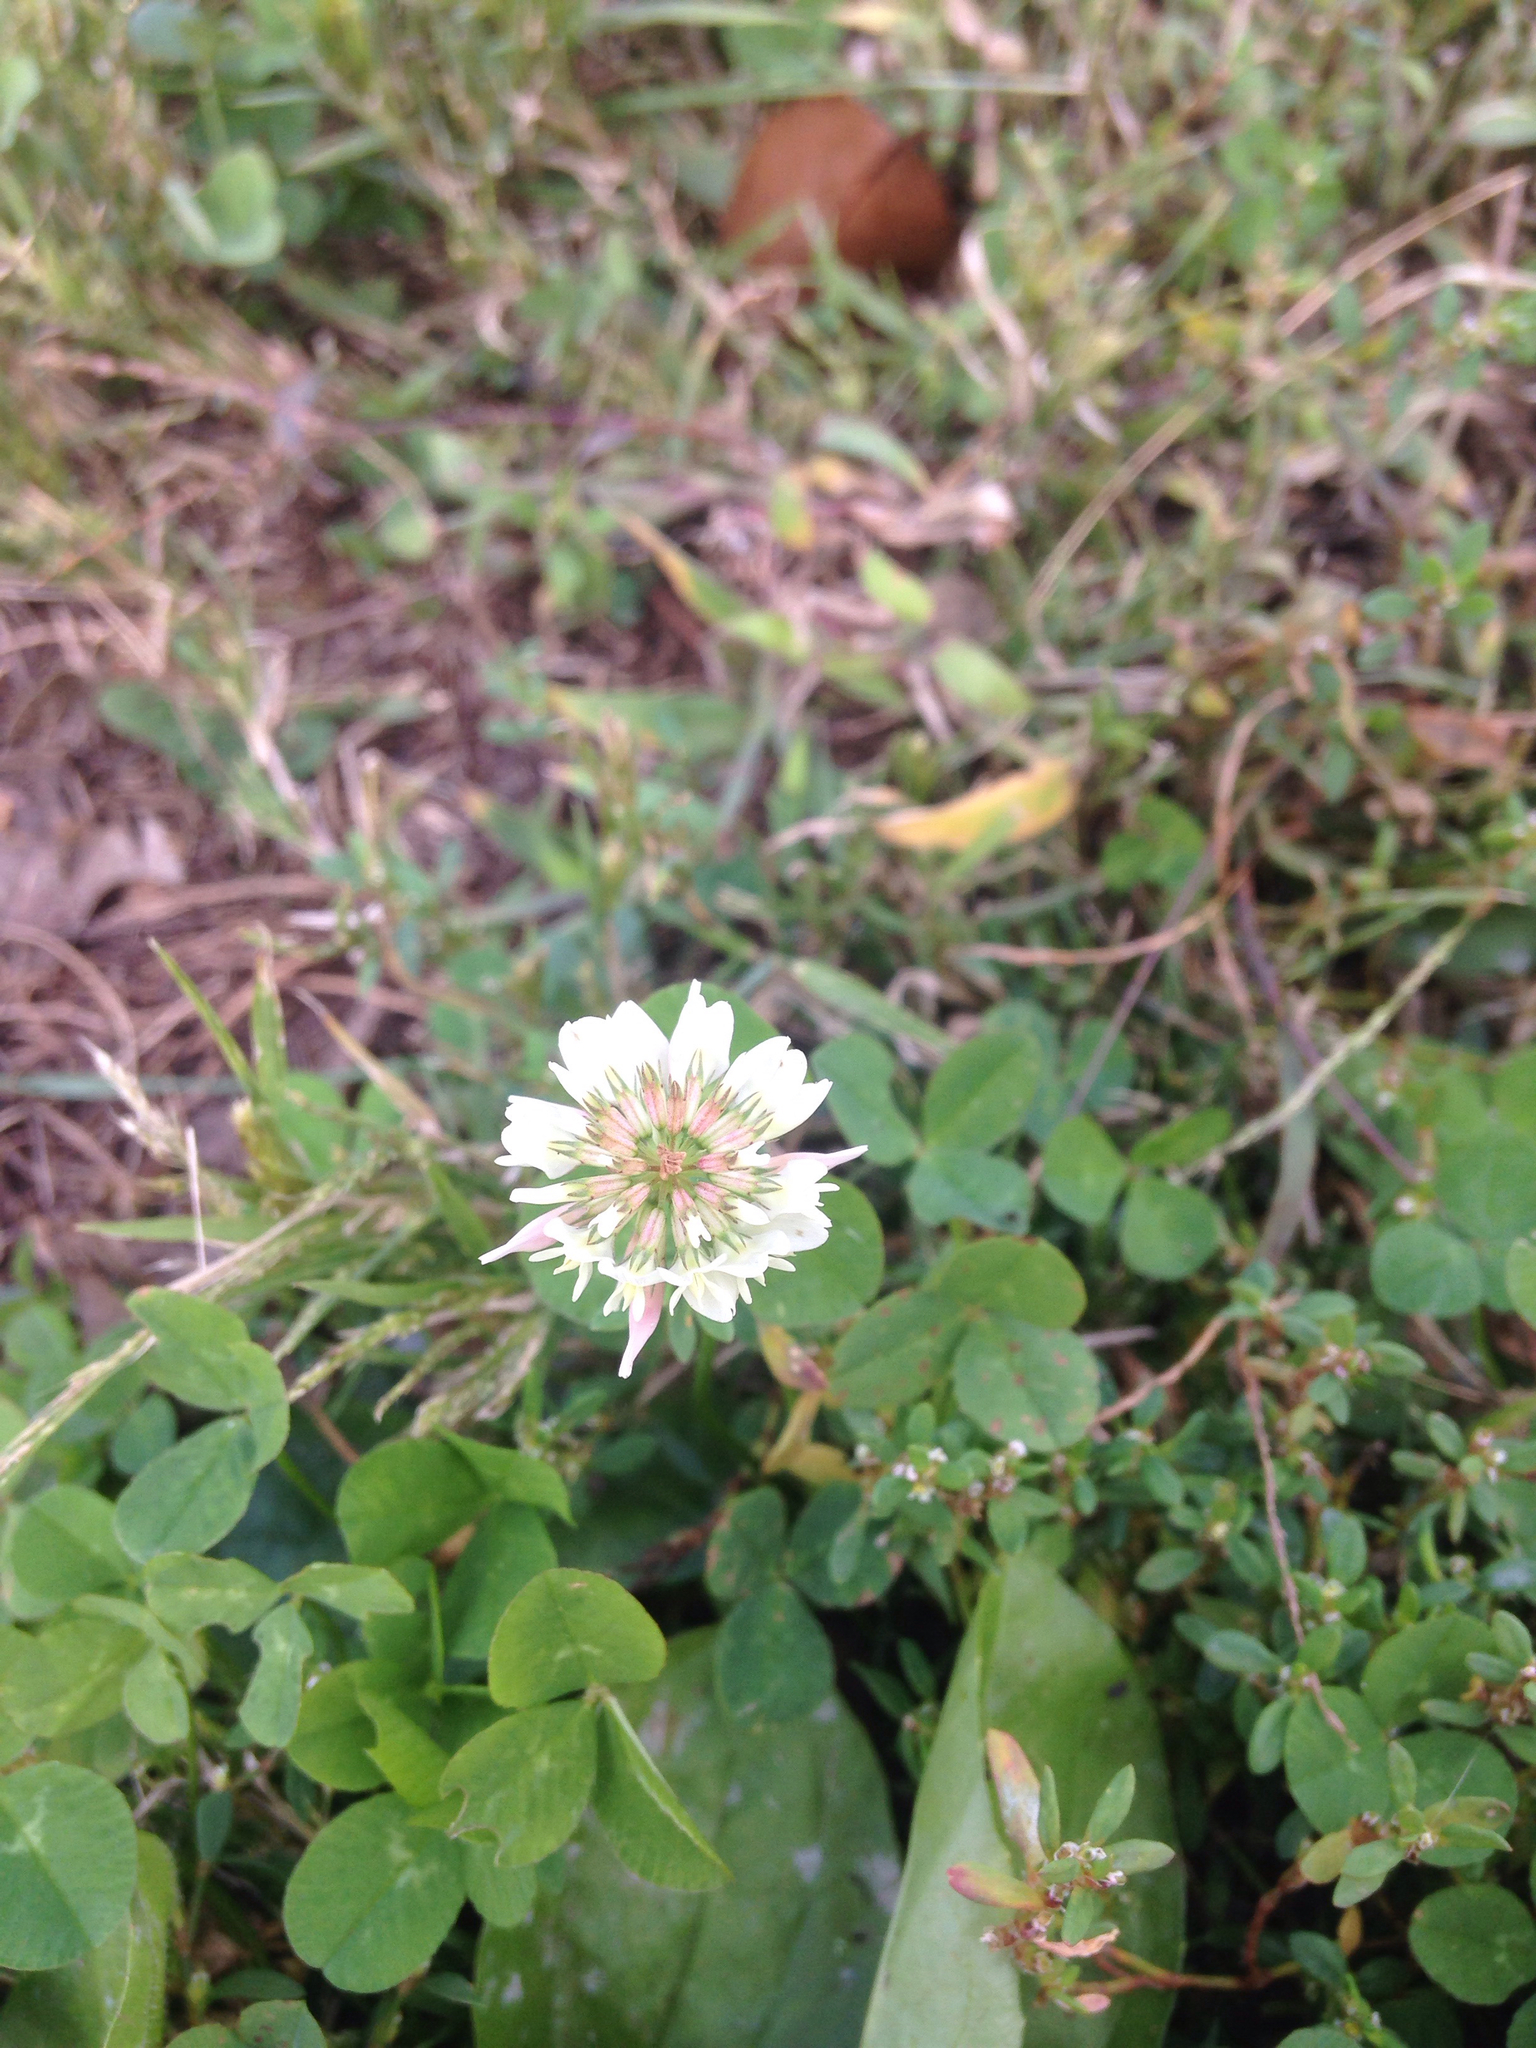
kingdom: Plantae
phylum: Tracheophyta
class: Magnoliopsida
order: Fabales
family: Fabaceae
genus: Trifolium
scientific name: Trifolium repens
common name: White clover
